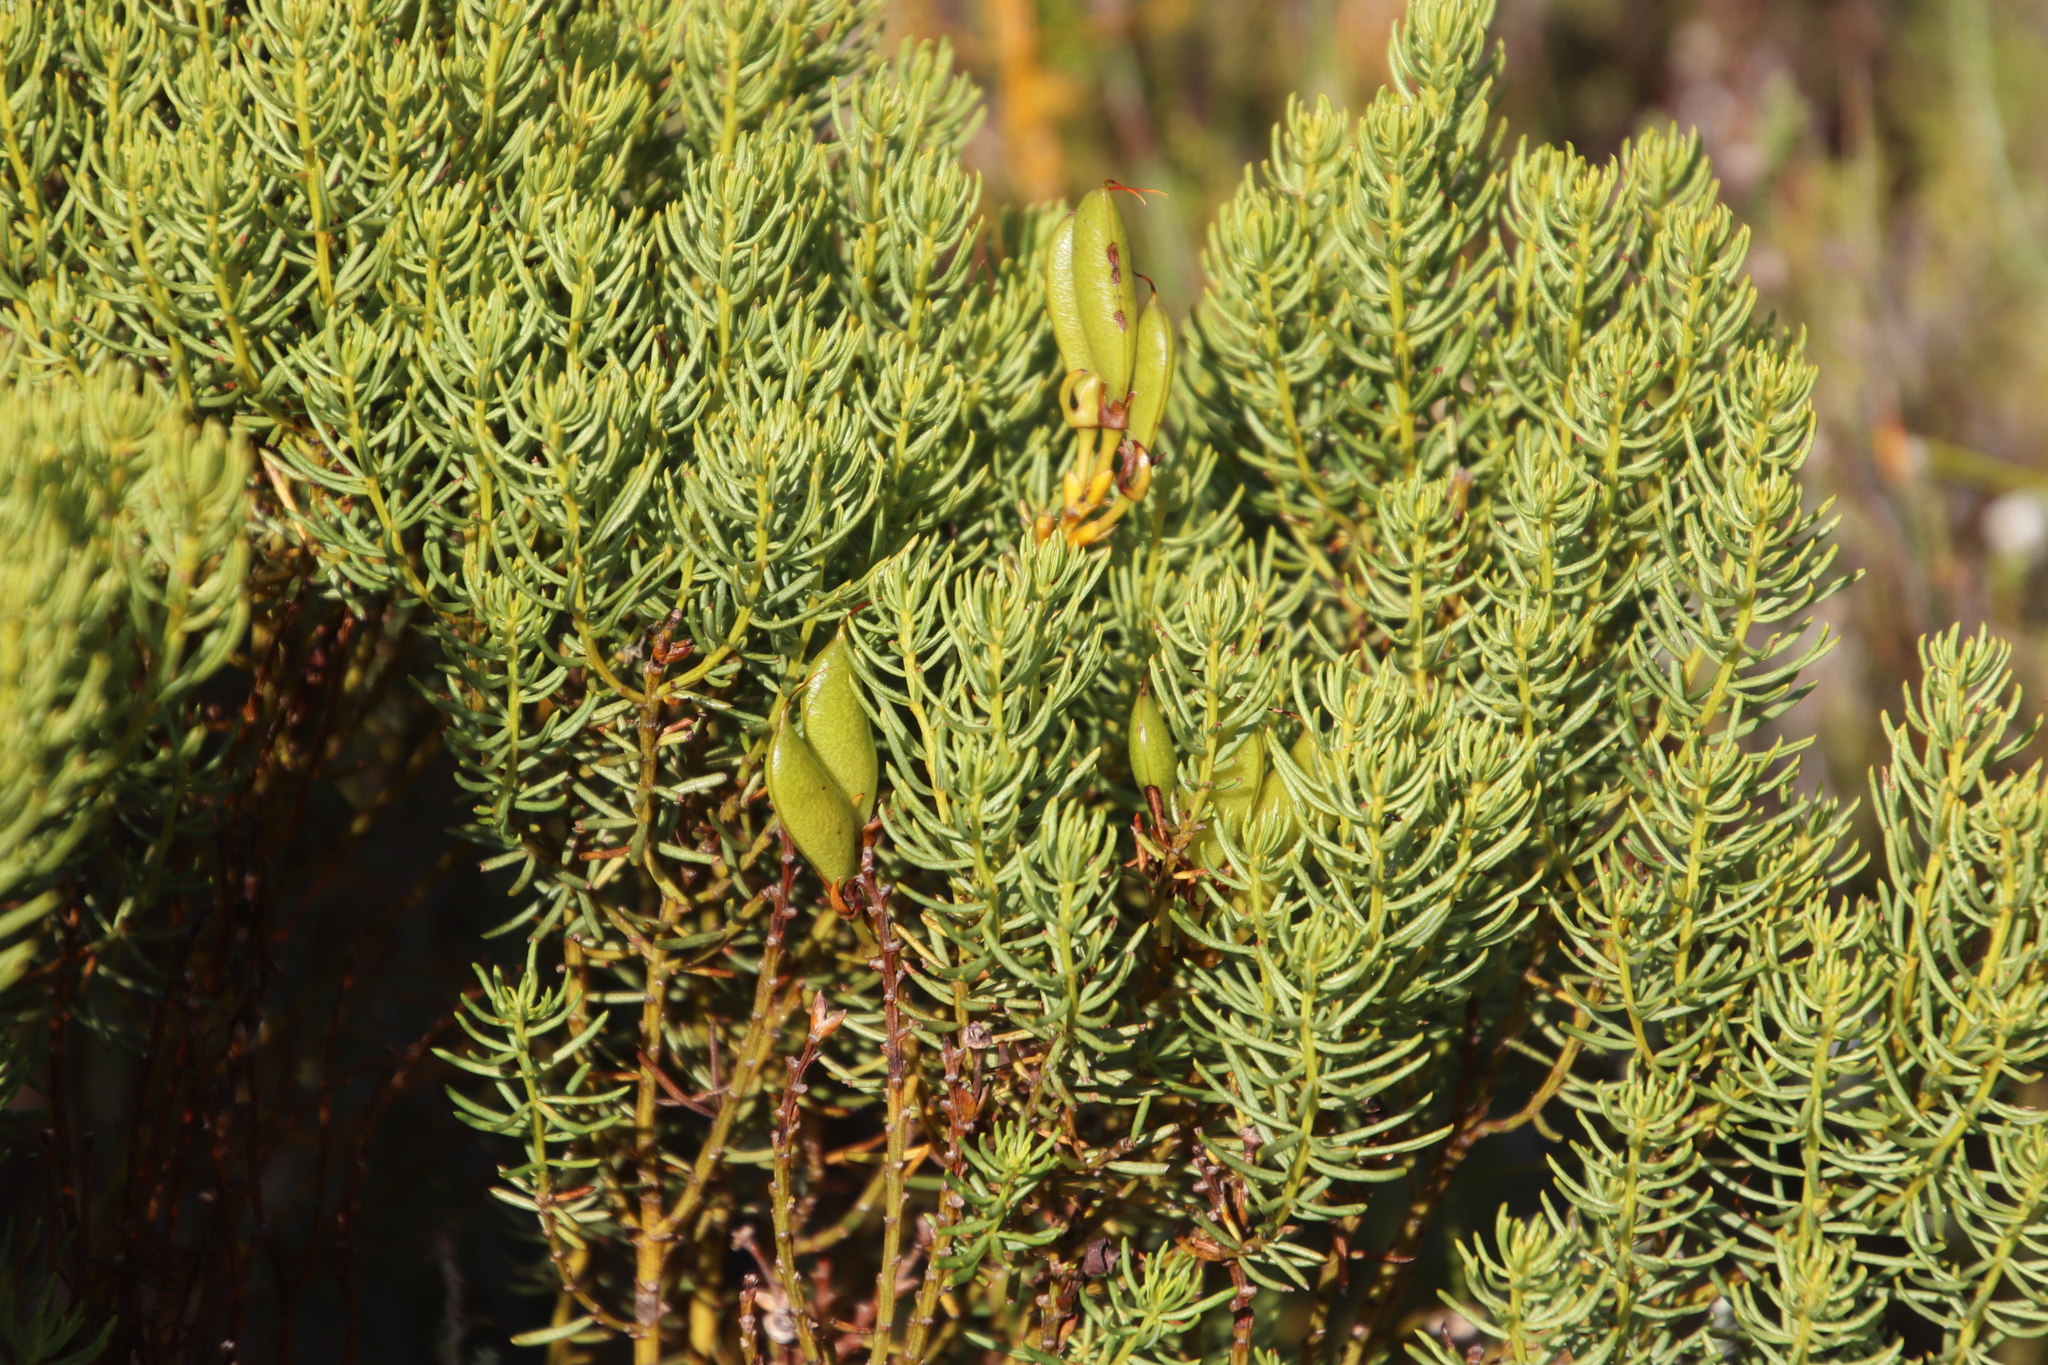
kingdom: Plantae
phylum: Tracheophyta
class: Magnoliopsida
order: Fabales
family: Fabaceae
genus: Cyclopia
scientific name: Cyclopia genistoides
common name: Honeybush tea
